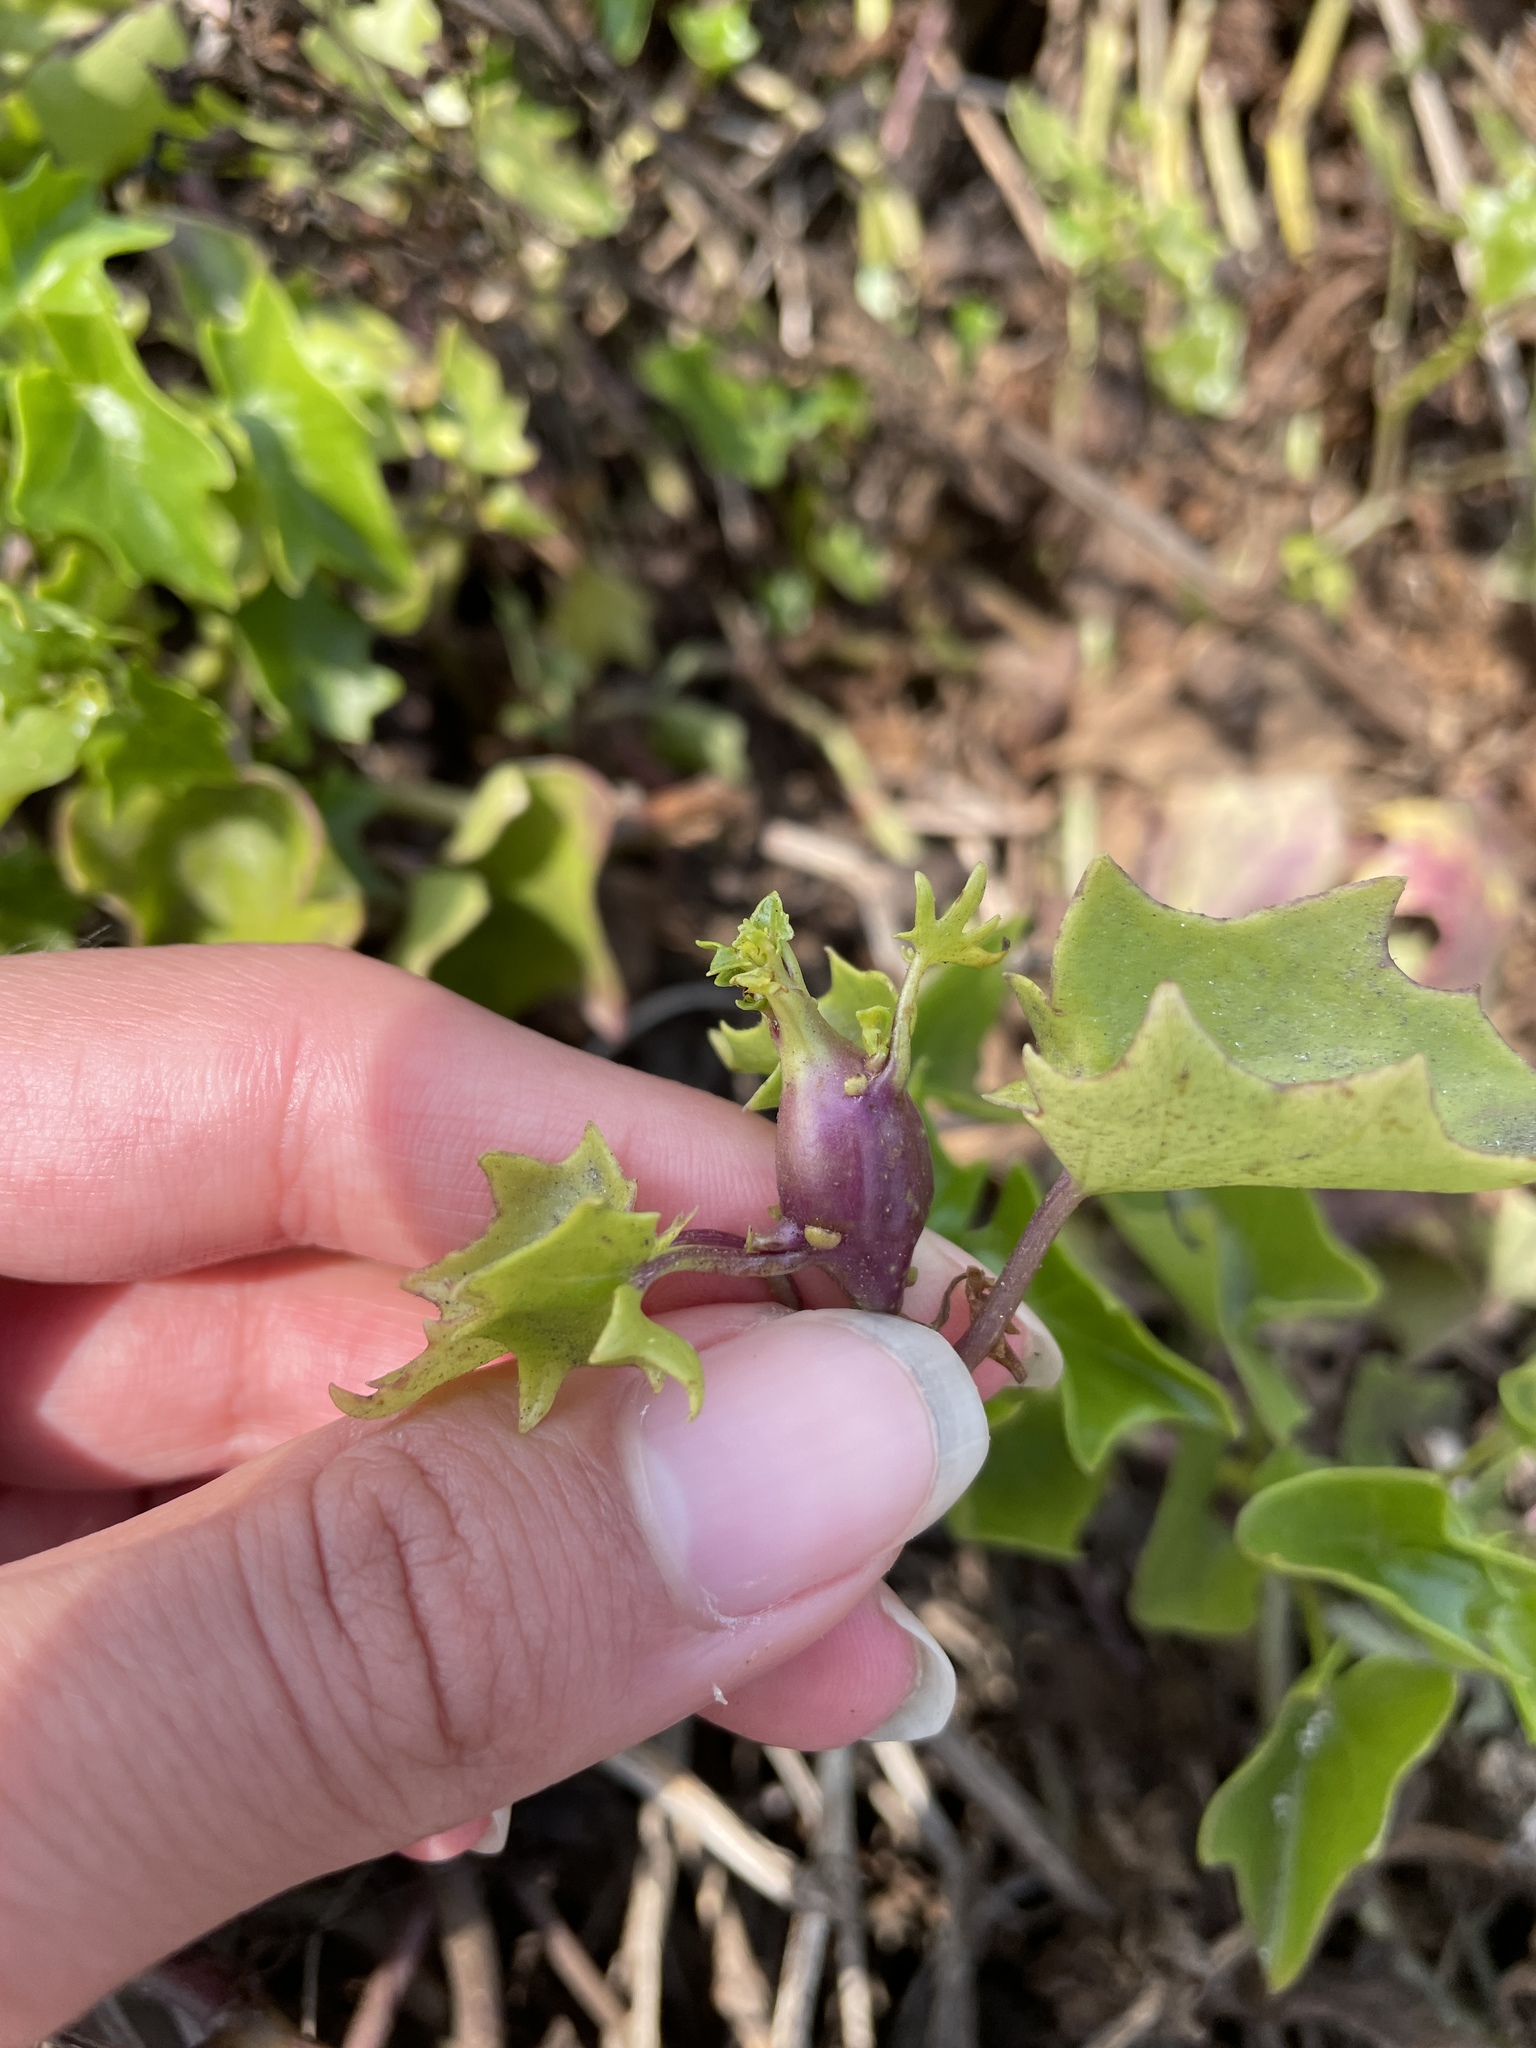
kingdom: Animalia
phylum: Arthropoda
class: Insecta
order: Diptera
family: Tephritidae
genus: Parafreutreta
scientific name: Parafreutreta regalis
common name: Shoot-tip galling fly
